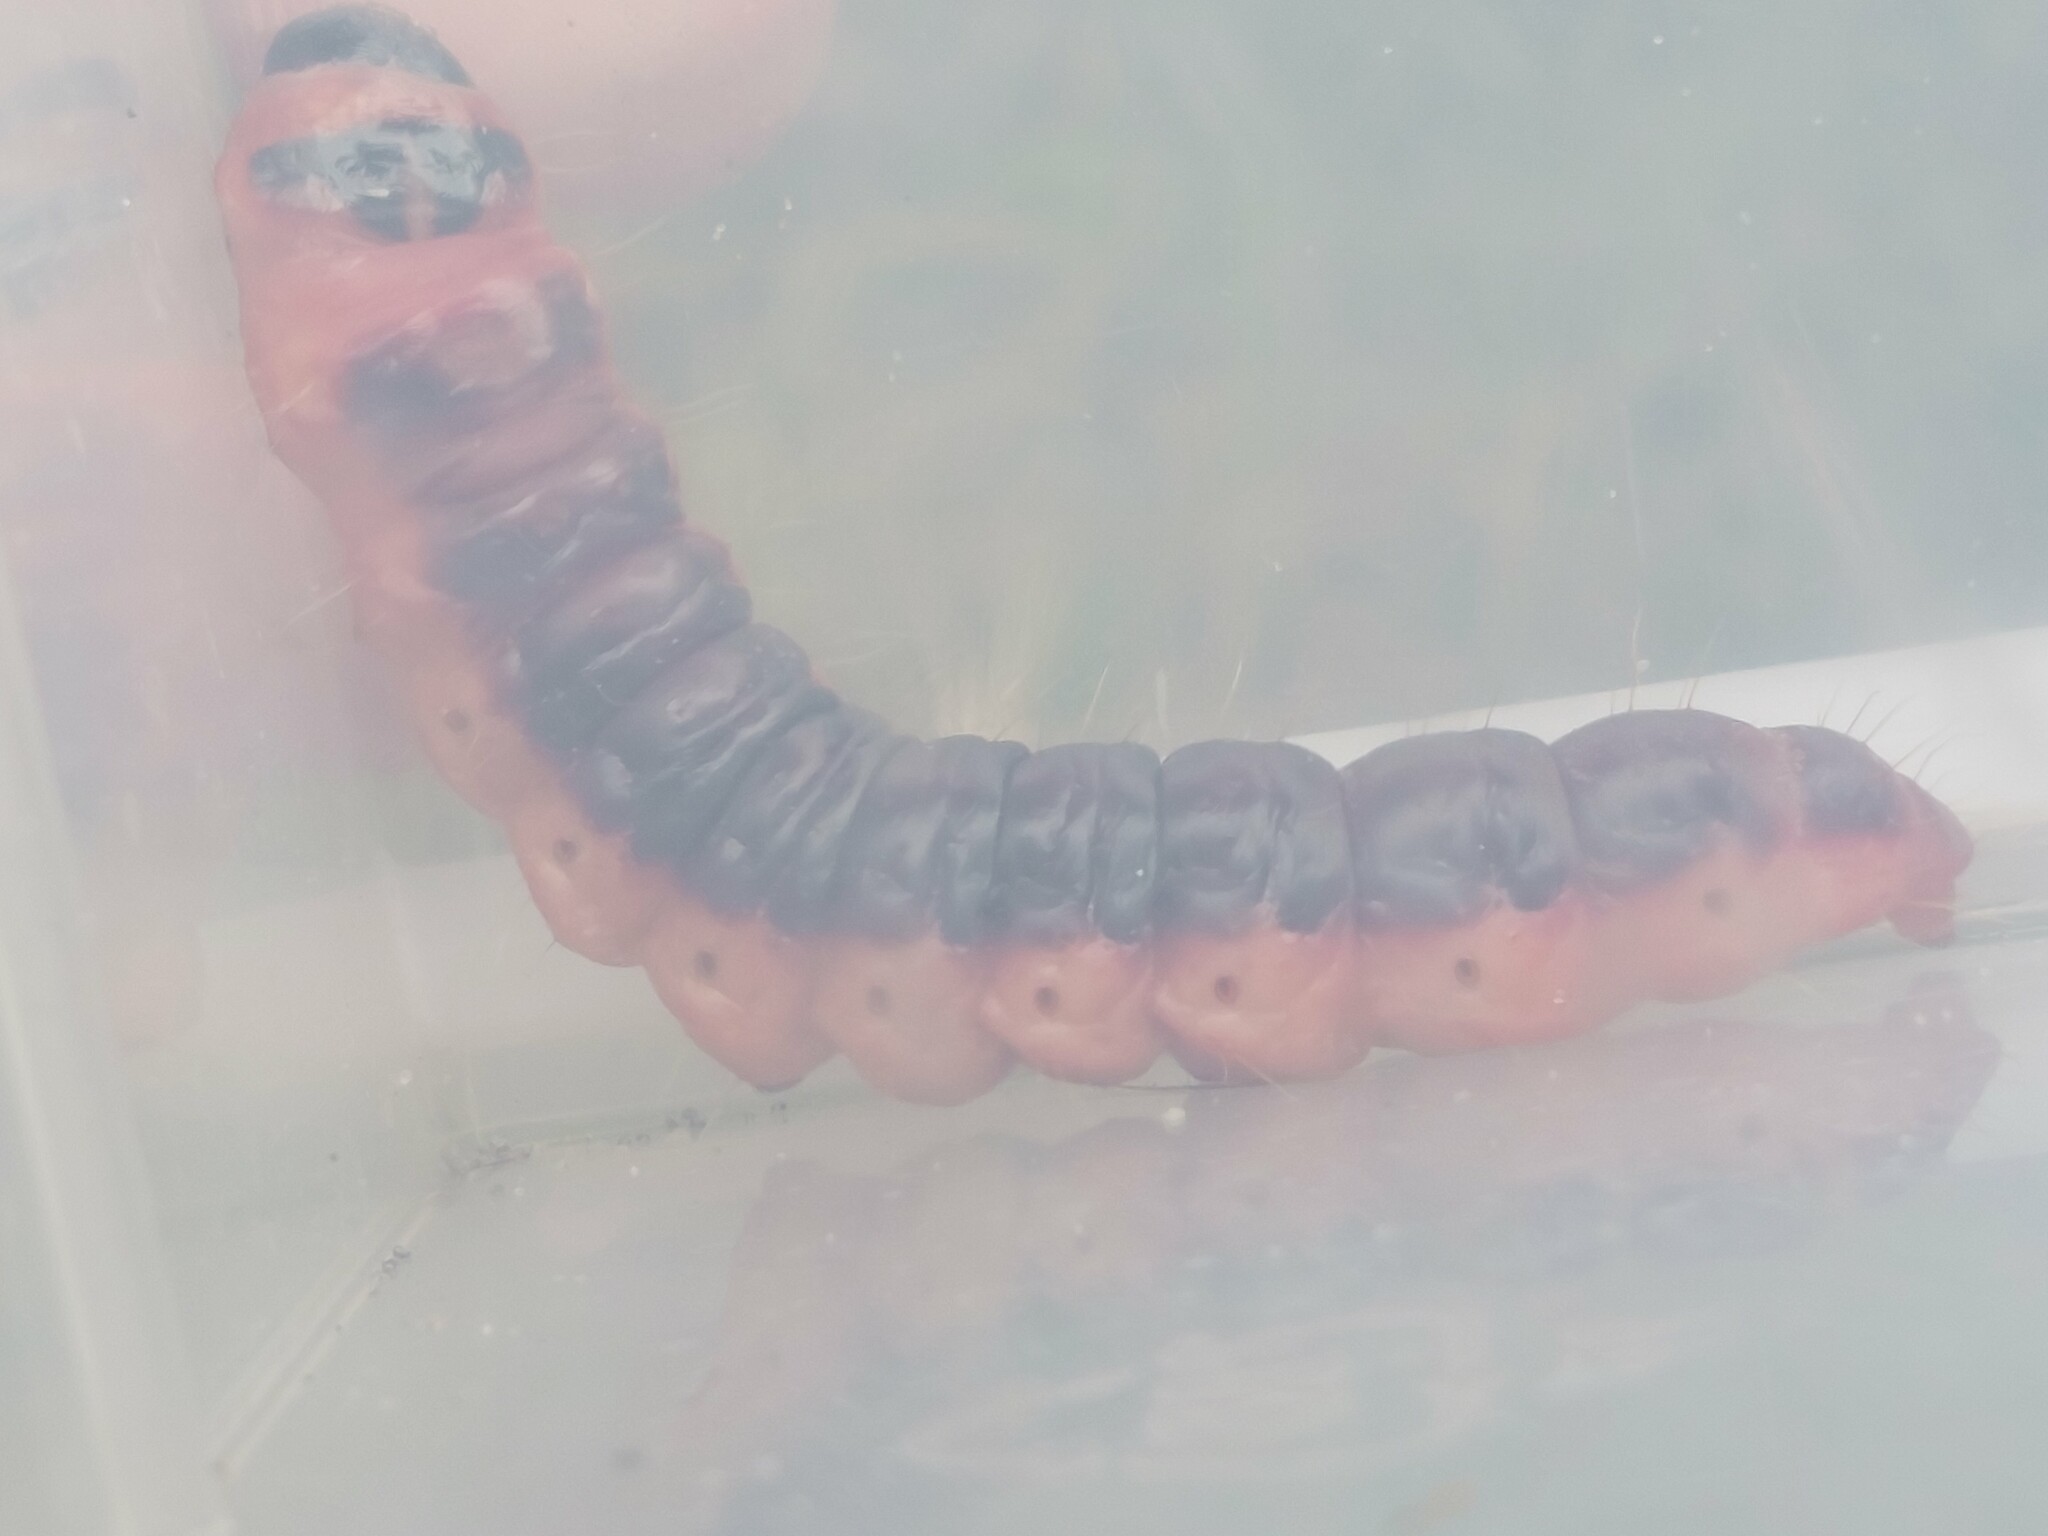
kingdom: Animalia
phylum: Arthropoda
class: Insecta
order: Lepidoptera
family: Cossidae
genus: Cossus
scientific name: Cossus cossus
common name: Goat moth
